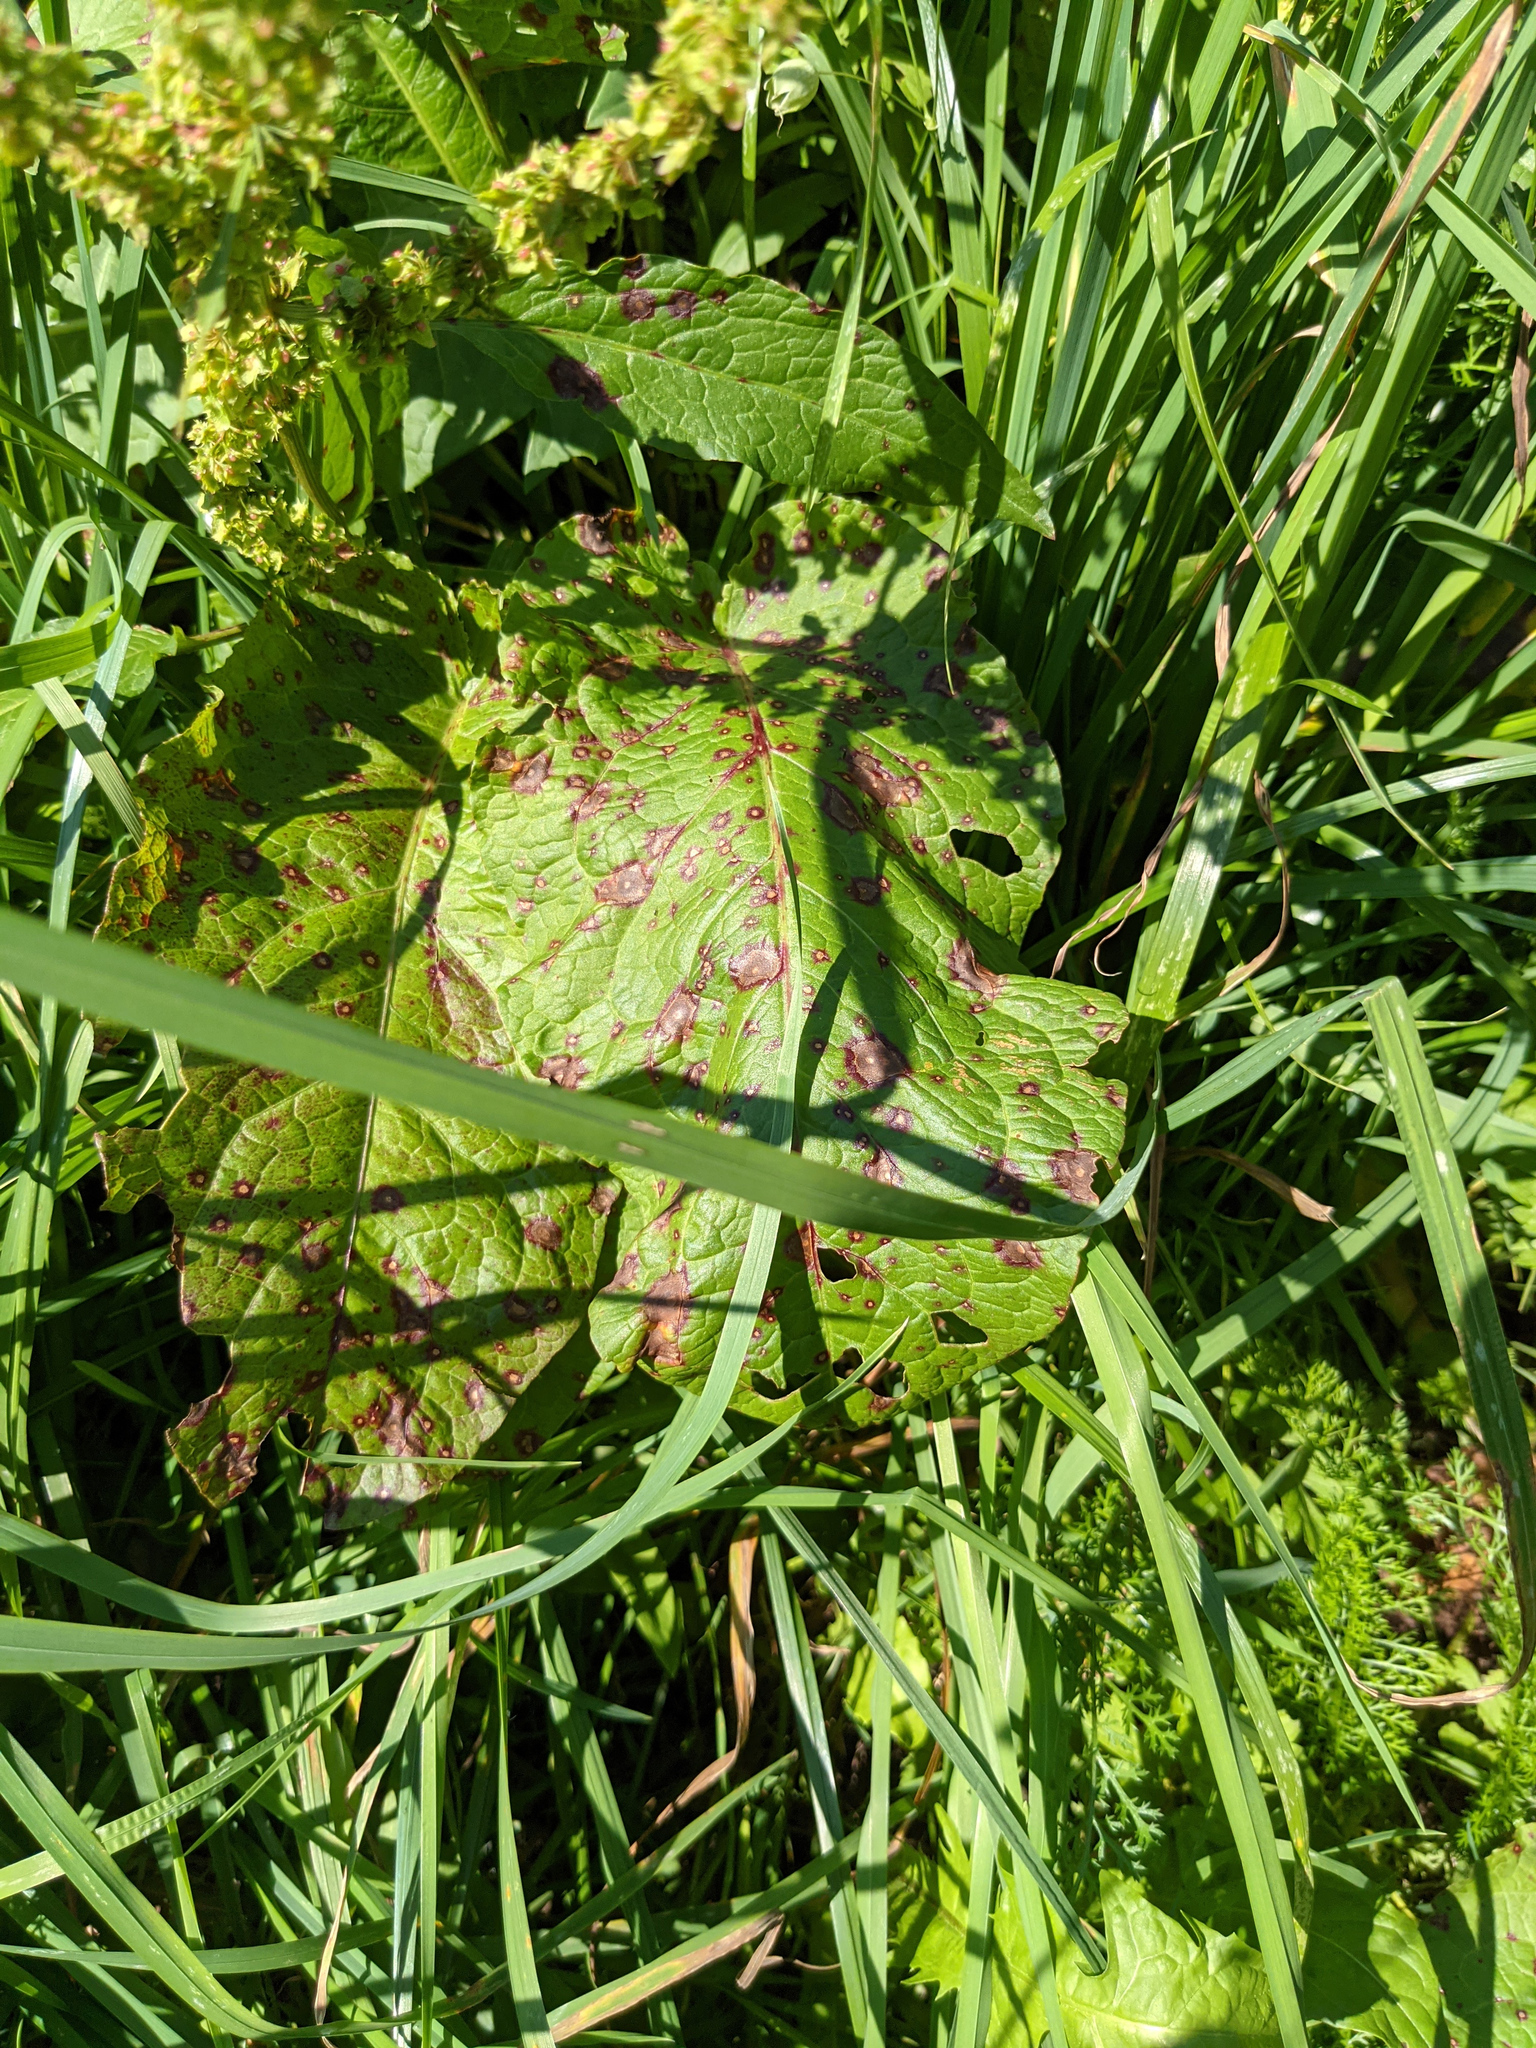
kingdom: Plantae
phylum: Tracheophyta
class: Magnoliopsida
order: Caryophyllales
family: Polygonaceae
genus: Rumex
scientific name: Rumex obtusifolius
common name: Bitter dock
